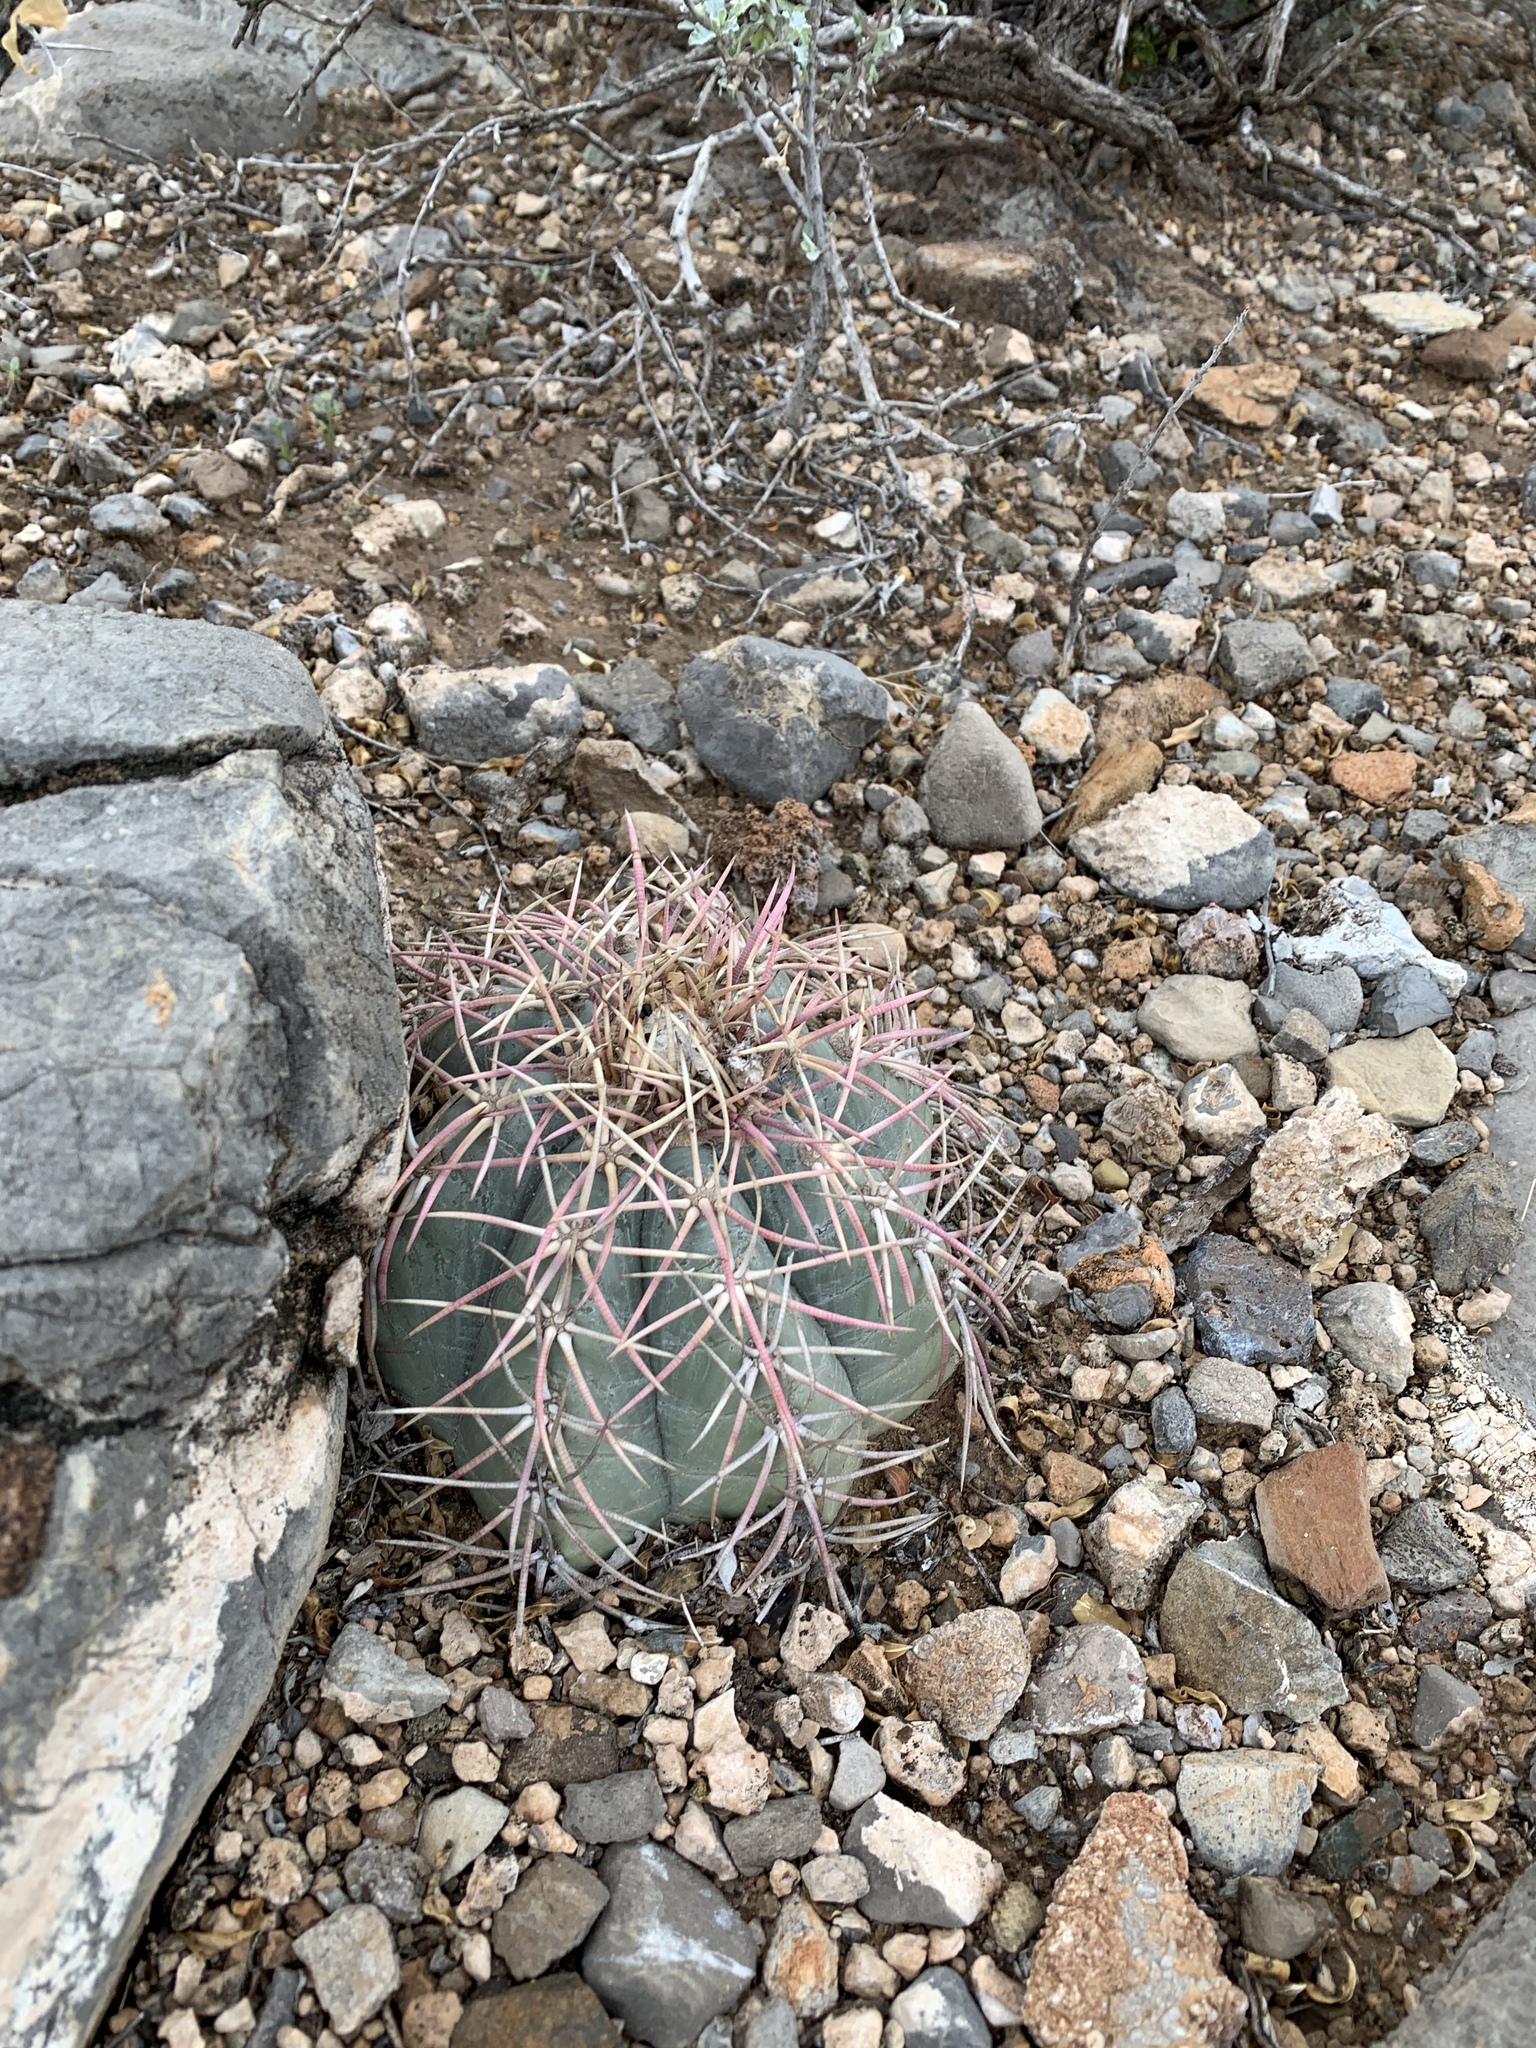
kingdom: Plantae
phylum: Tracheophyta
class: Magnoliopsida
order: Caryophyllales
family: Cactaceae
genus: Echinocactus
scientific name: Echinocactus horizonthalonius
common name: Devilshead
